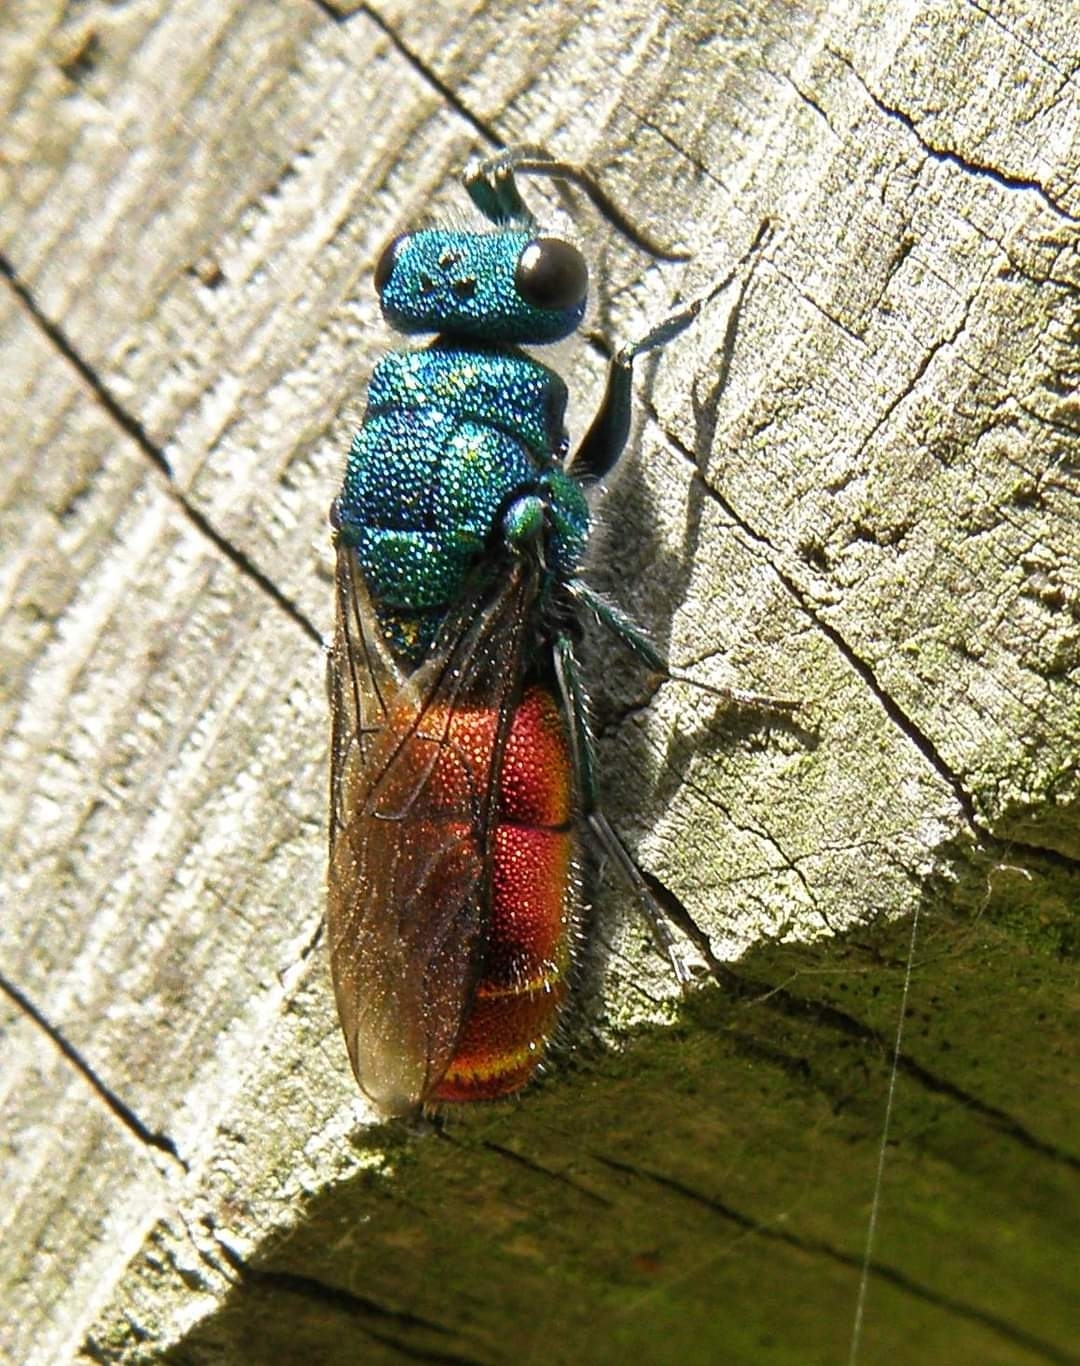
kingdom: Animalia
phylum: Arthropoda
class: Insecta
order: Hymenoptera
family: Chrysididae
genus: Chrysura
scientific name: Chrysura radians
